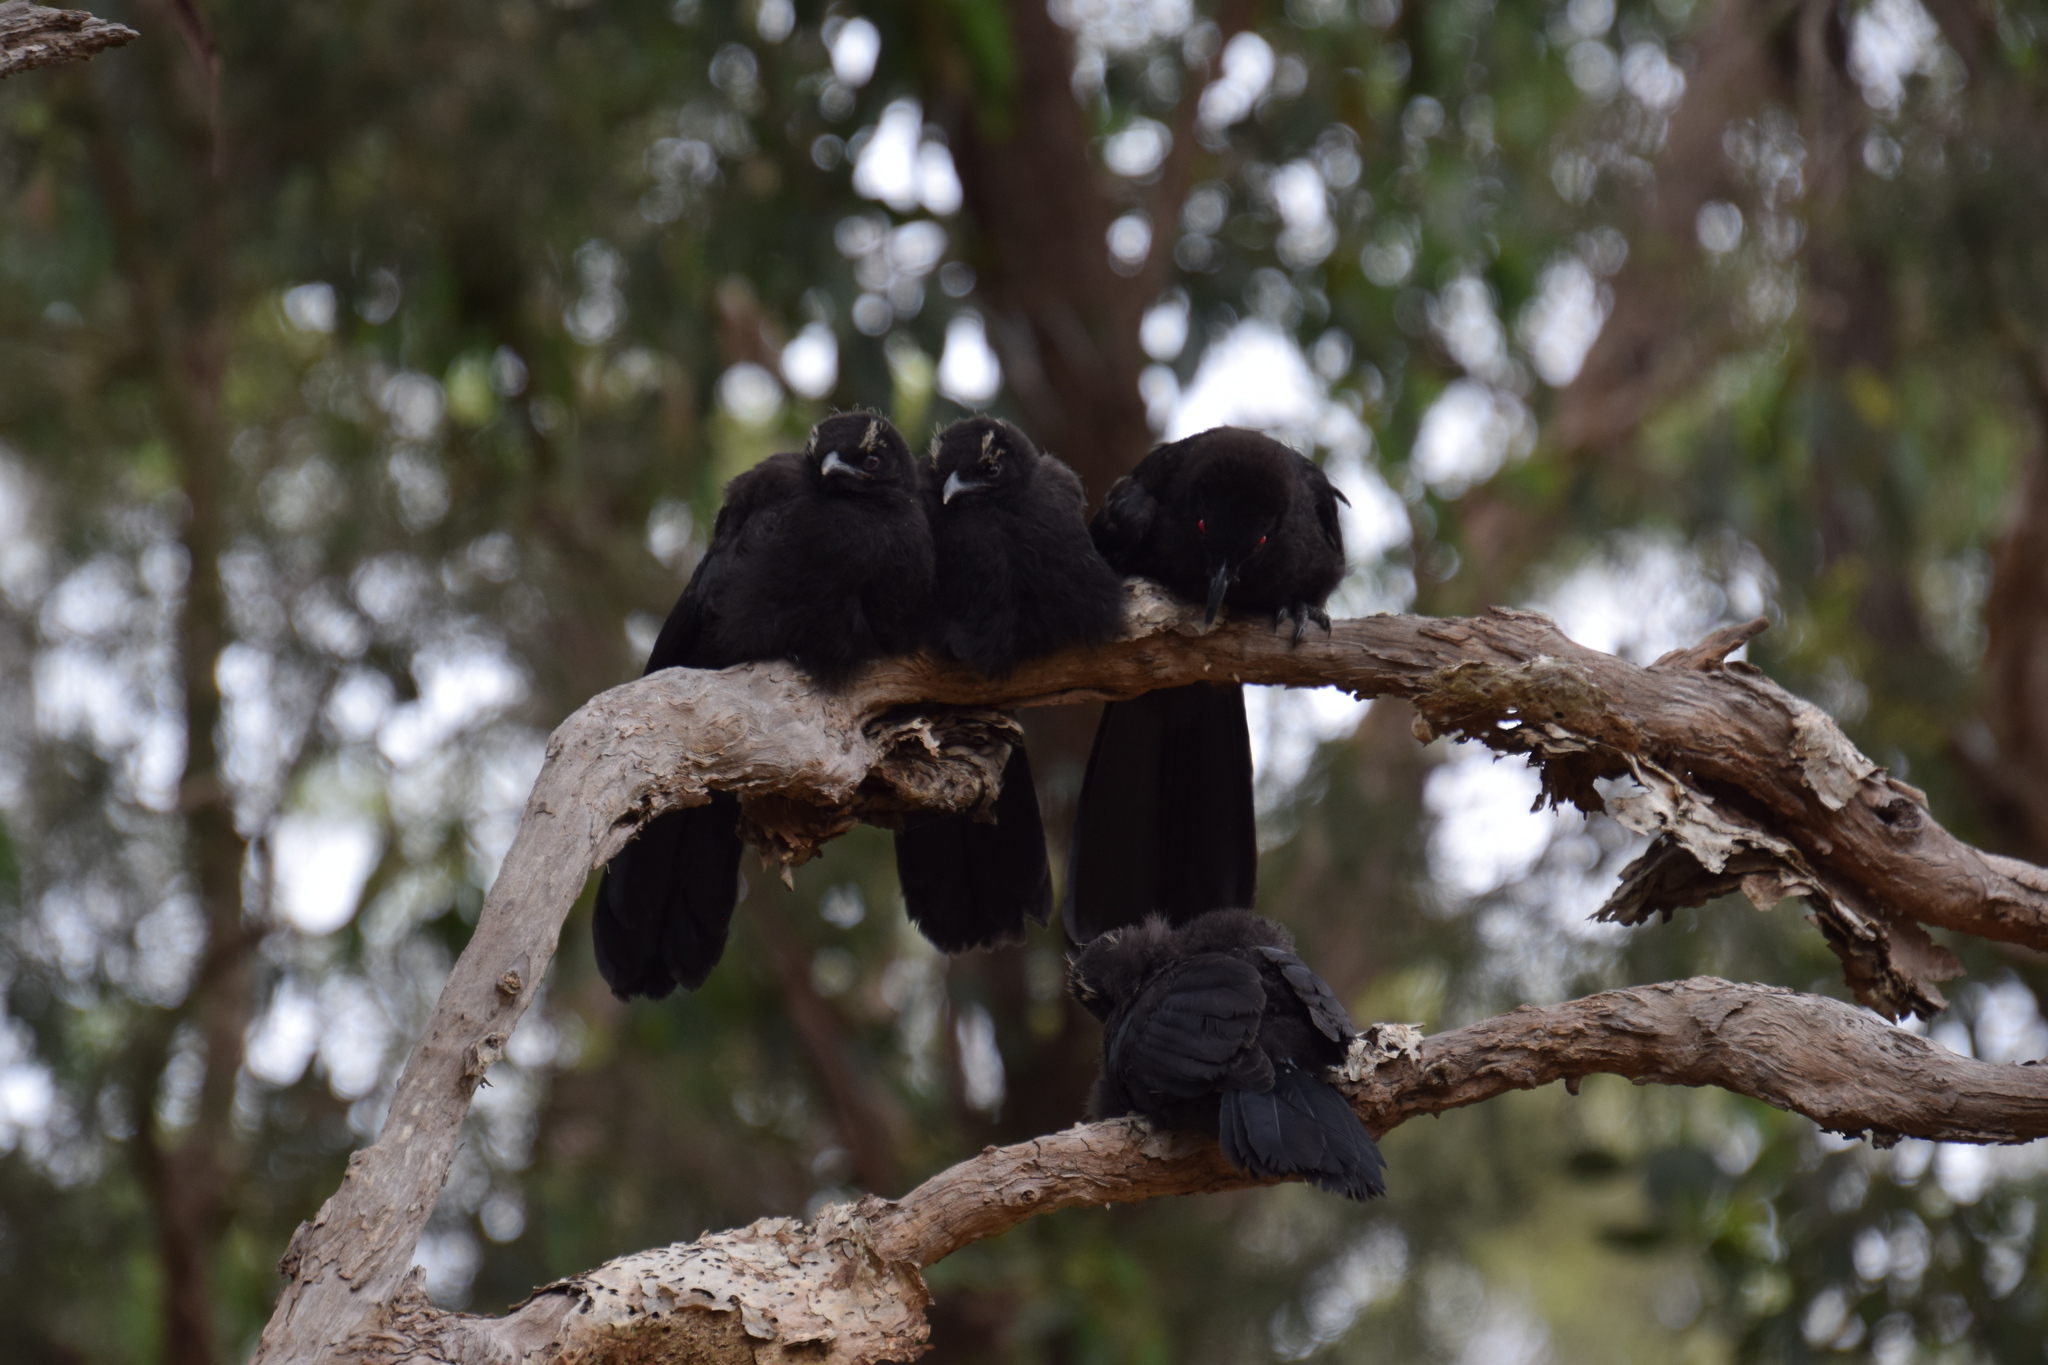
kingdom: Animalia
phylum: Chordata
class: Aves
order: Passeriformes
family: Corcoracidae
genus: Corcorax
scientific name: Corcorax melanoramphos
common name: White-winged chough
